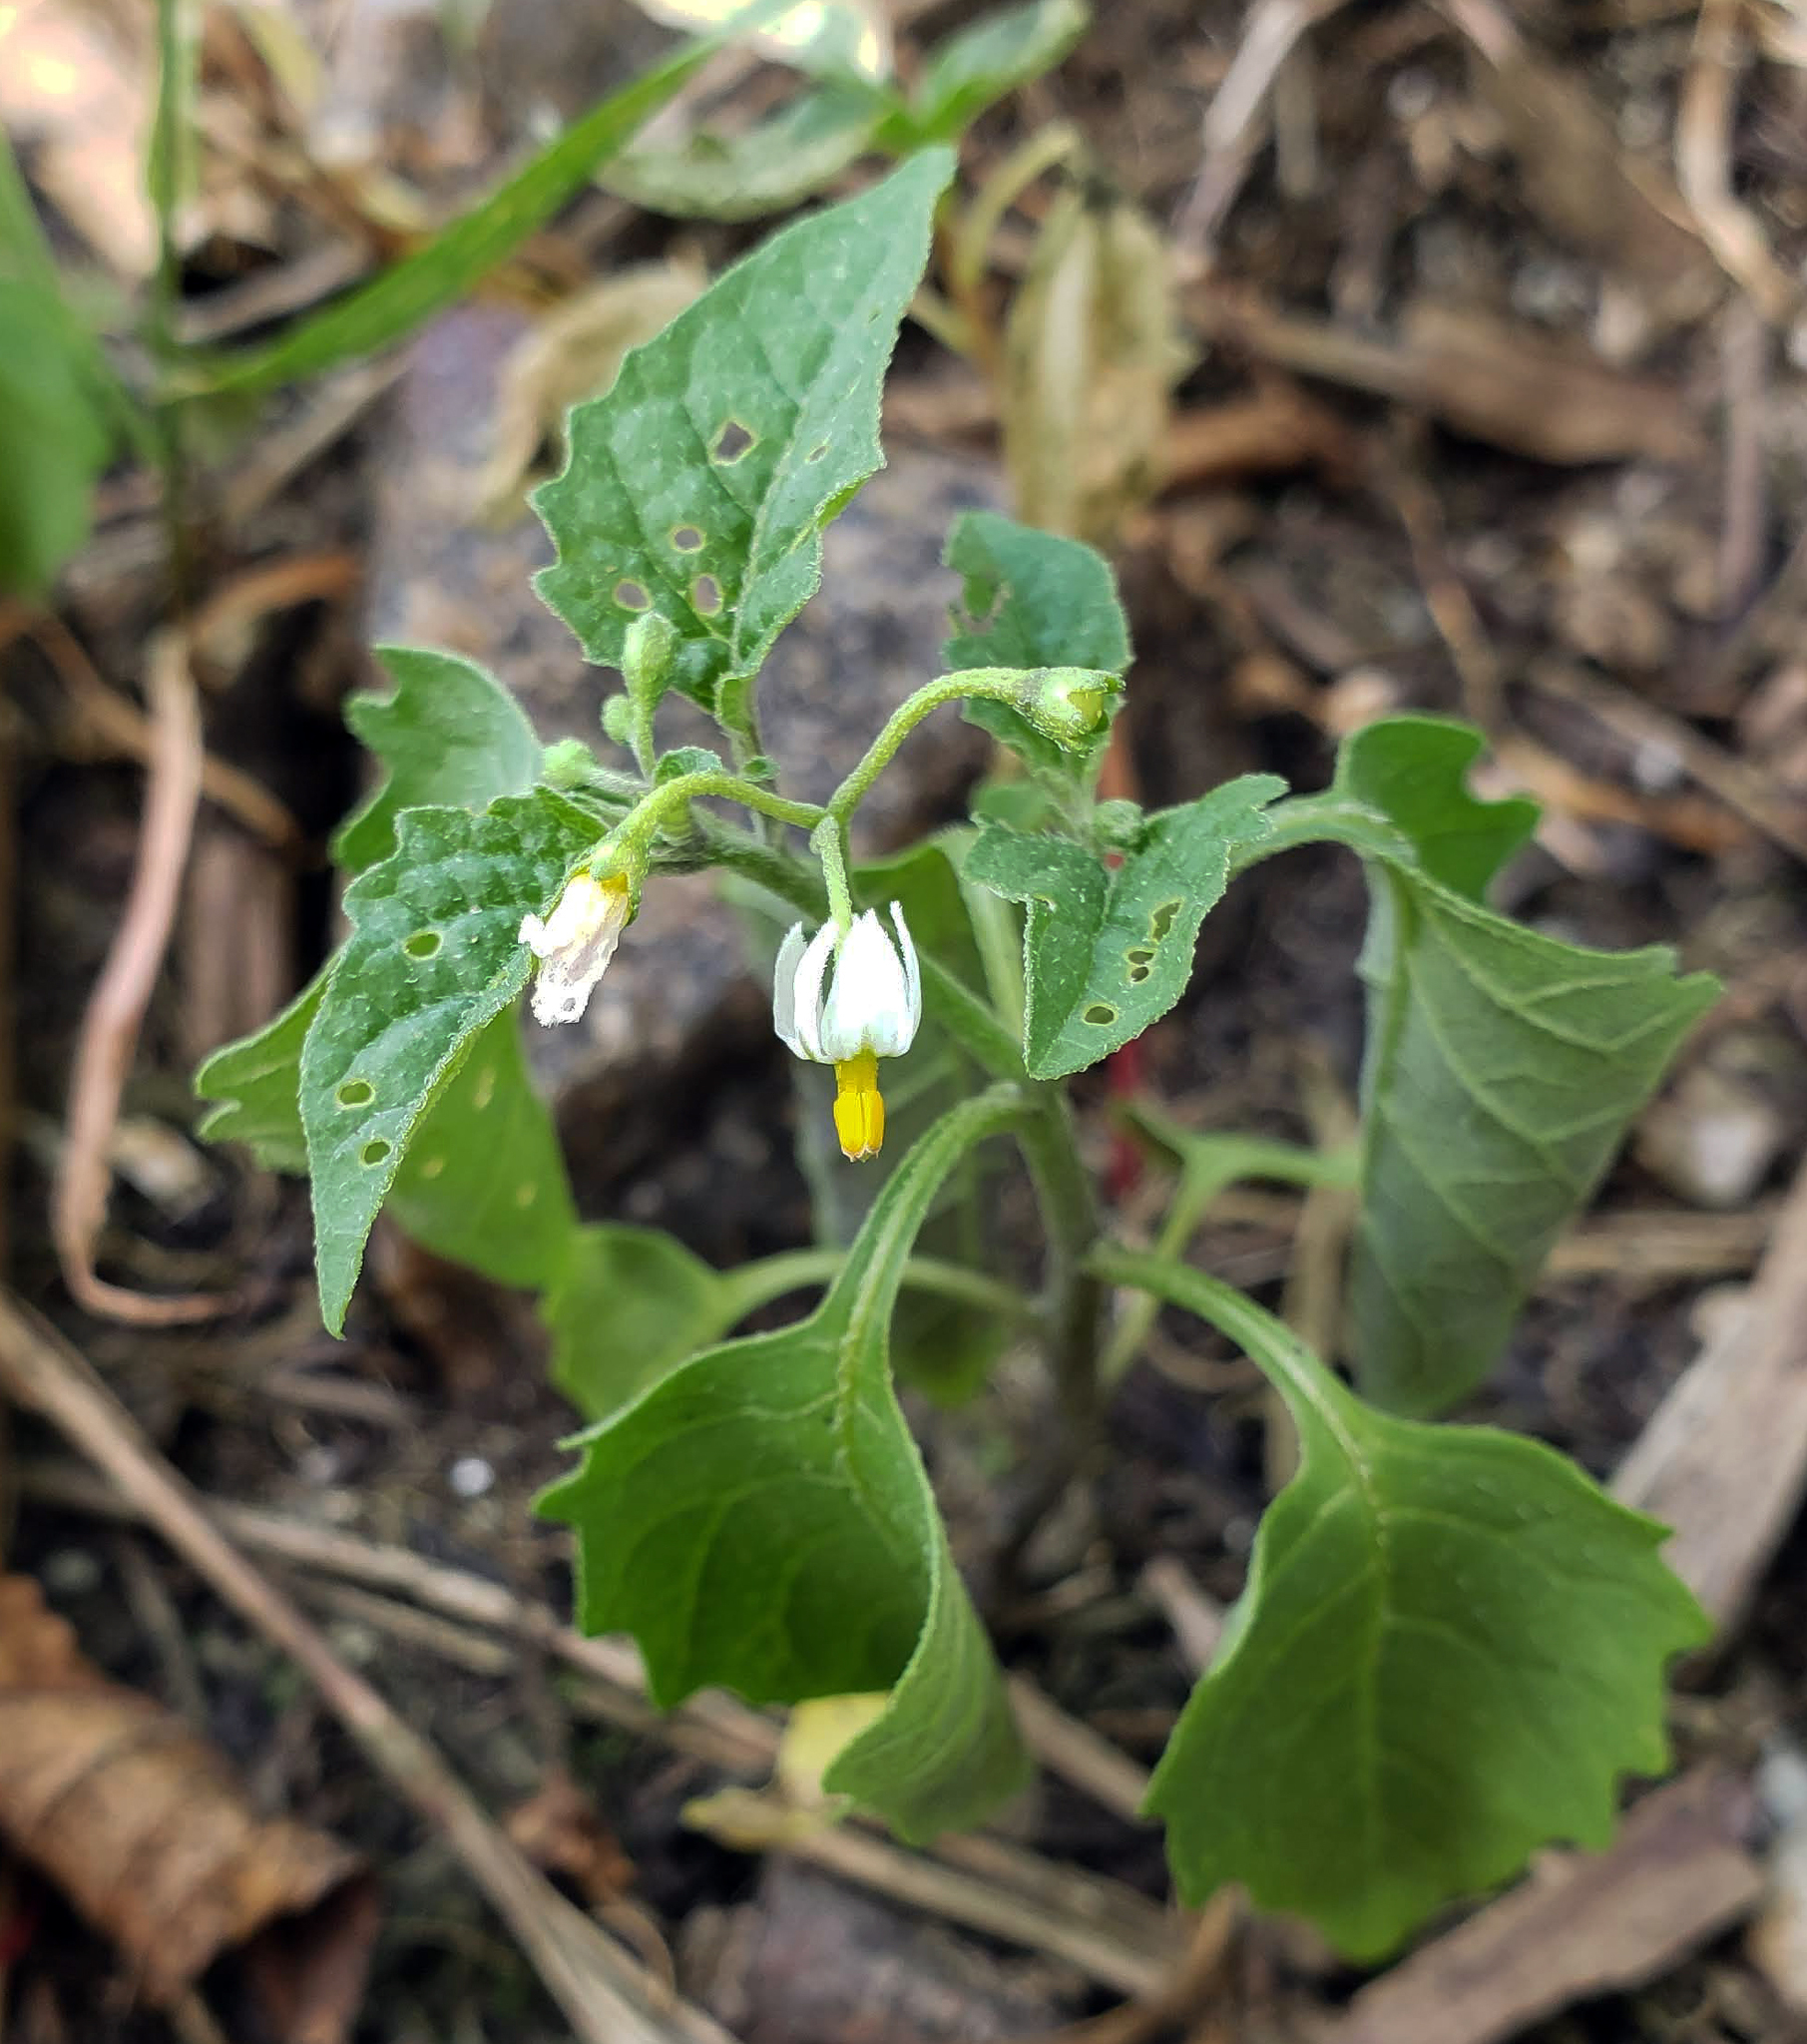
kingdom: Plantae
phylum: Tracheophyta
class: Magnoliopsida
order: Solanales
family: Solanaceae
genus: Solanum
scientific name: Solanum emulans
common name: Eastern black nightshade
